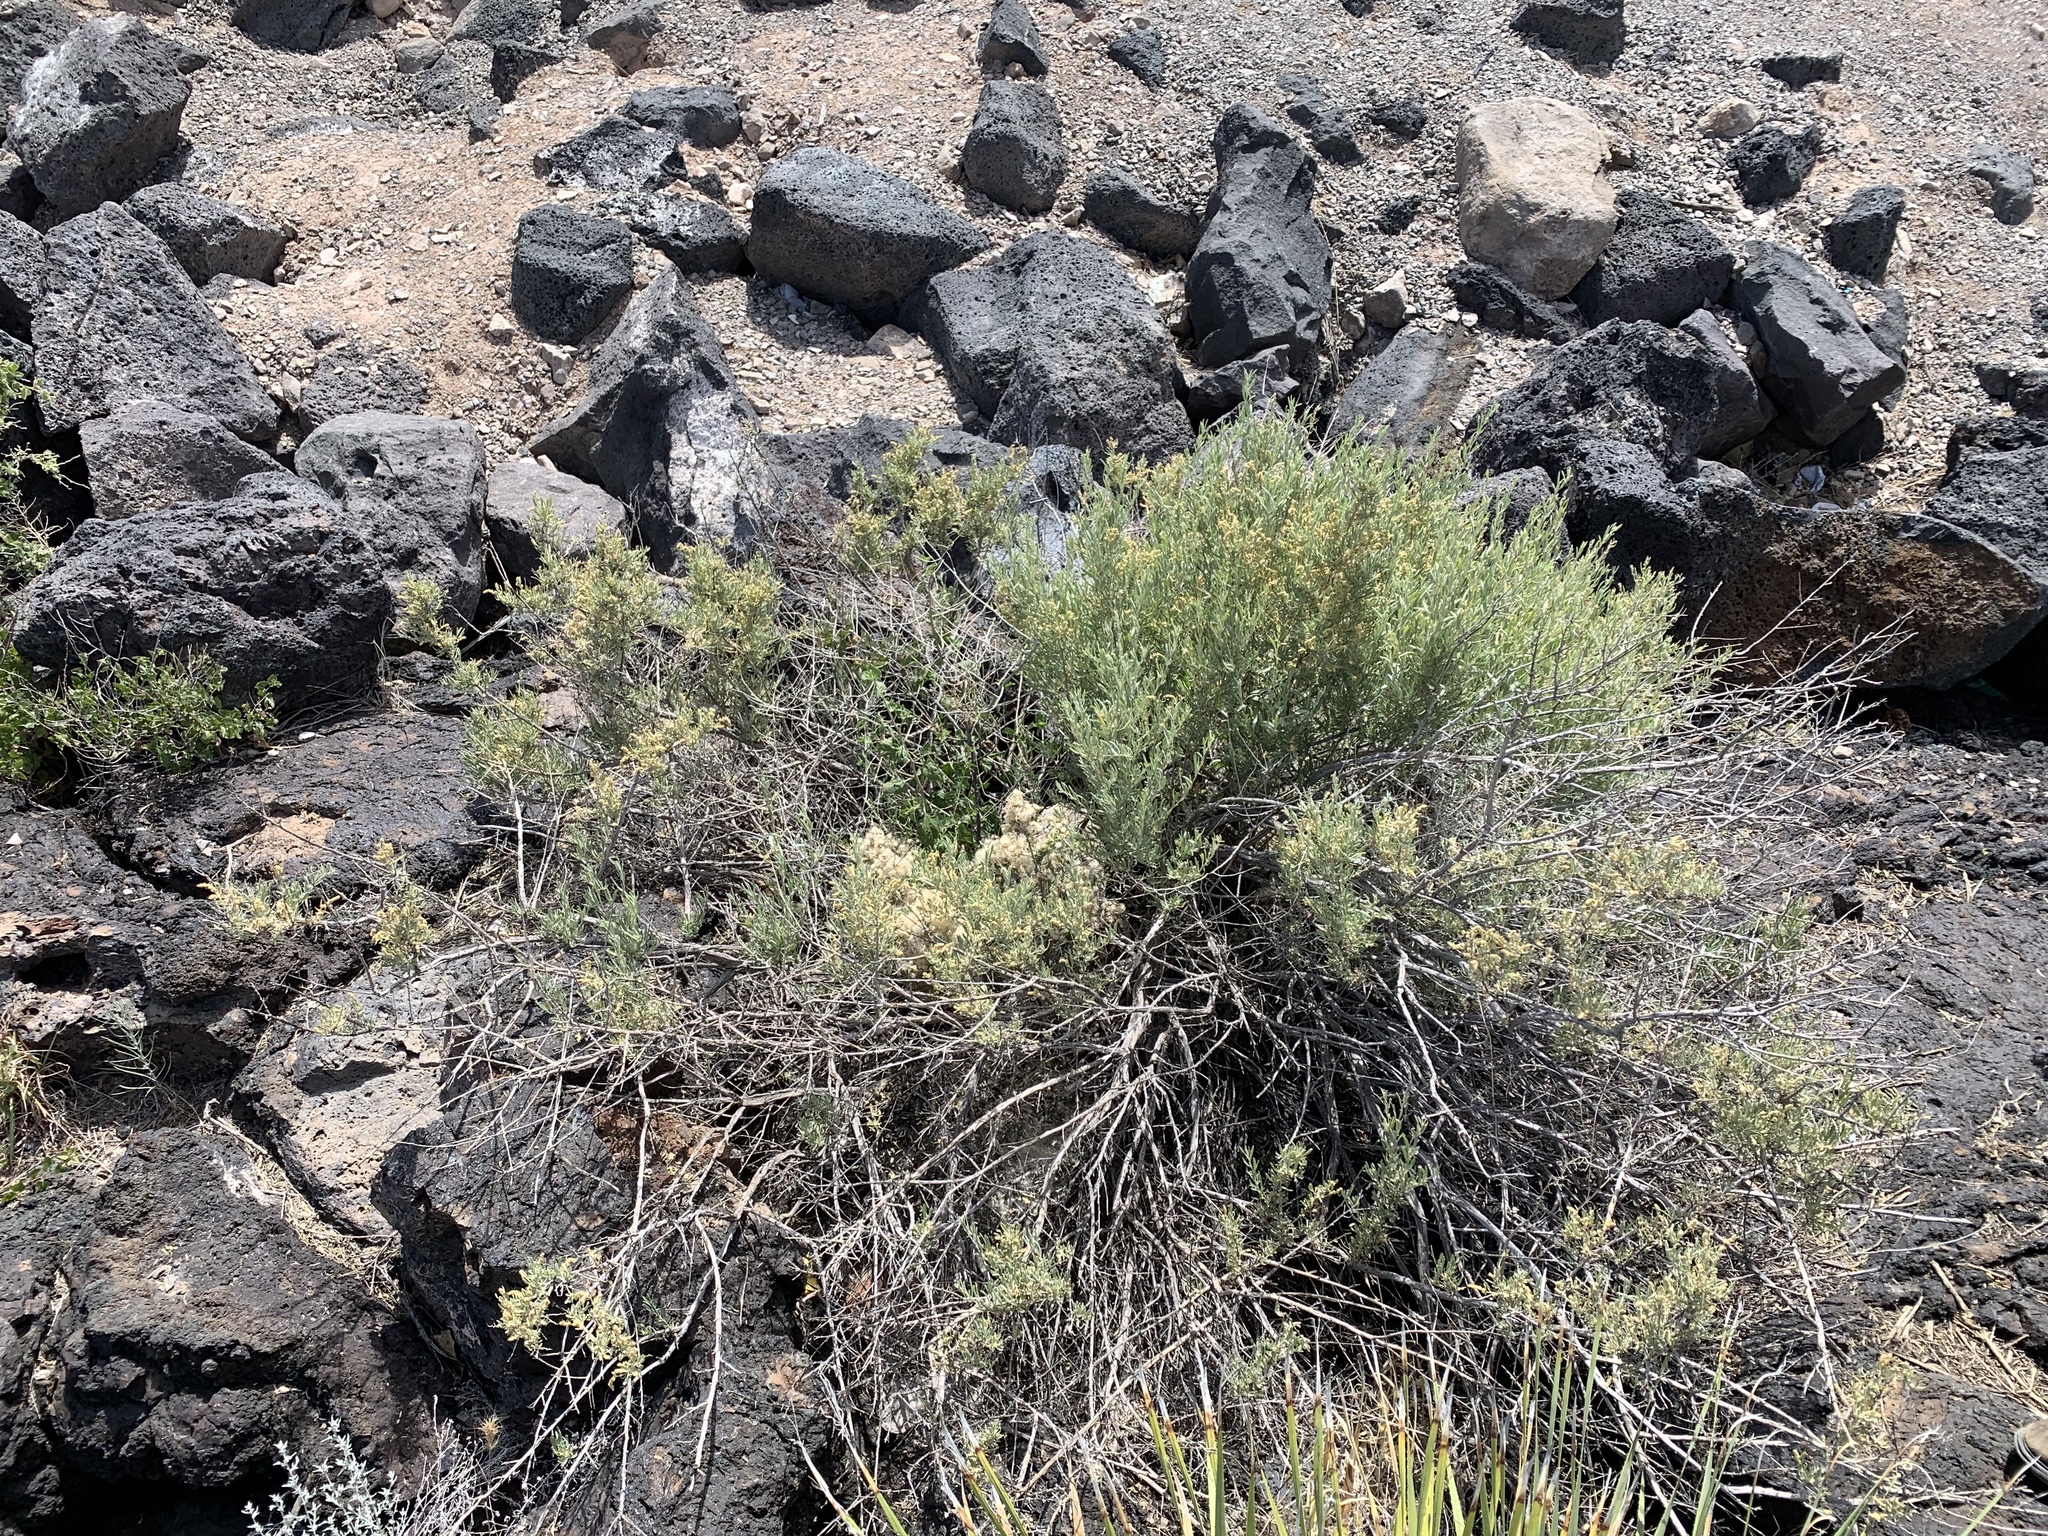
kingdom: Plantae
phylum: Tracheophyta
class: Magnoliopsida
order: Caryophyllales
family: Amaranthaceae
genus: Atriplex
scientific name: Atriplex canescens
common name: Four-wing saltbush
